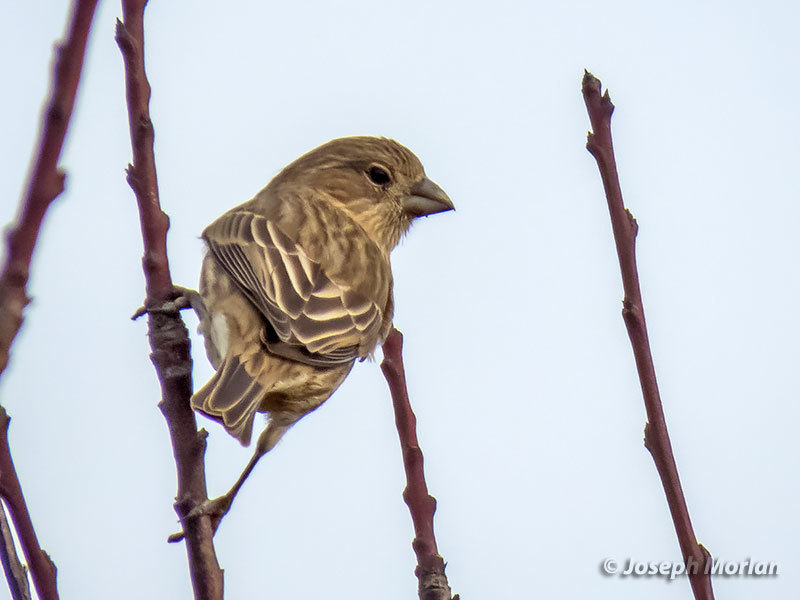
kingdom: Animalia
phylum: Chordata
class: Aves
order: Passeriformes
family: Fringillidae
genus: Haemorhous
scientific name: Haemorhous mexicanus
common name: House finch
